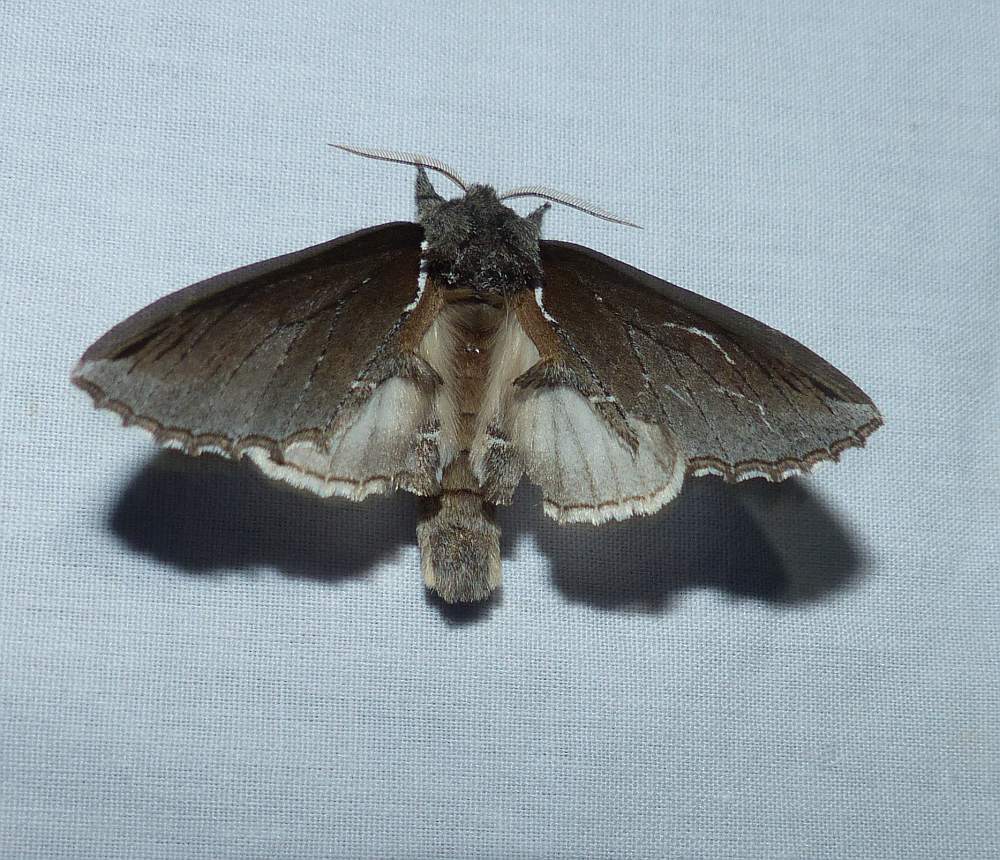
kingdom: Animalia
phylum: Arthropoda
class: Insecta
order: Lepidoptera
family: Notodontidae
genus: Pheosidea
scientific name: Pheosidea elegans
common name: Elegant prominent
